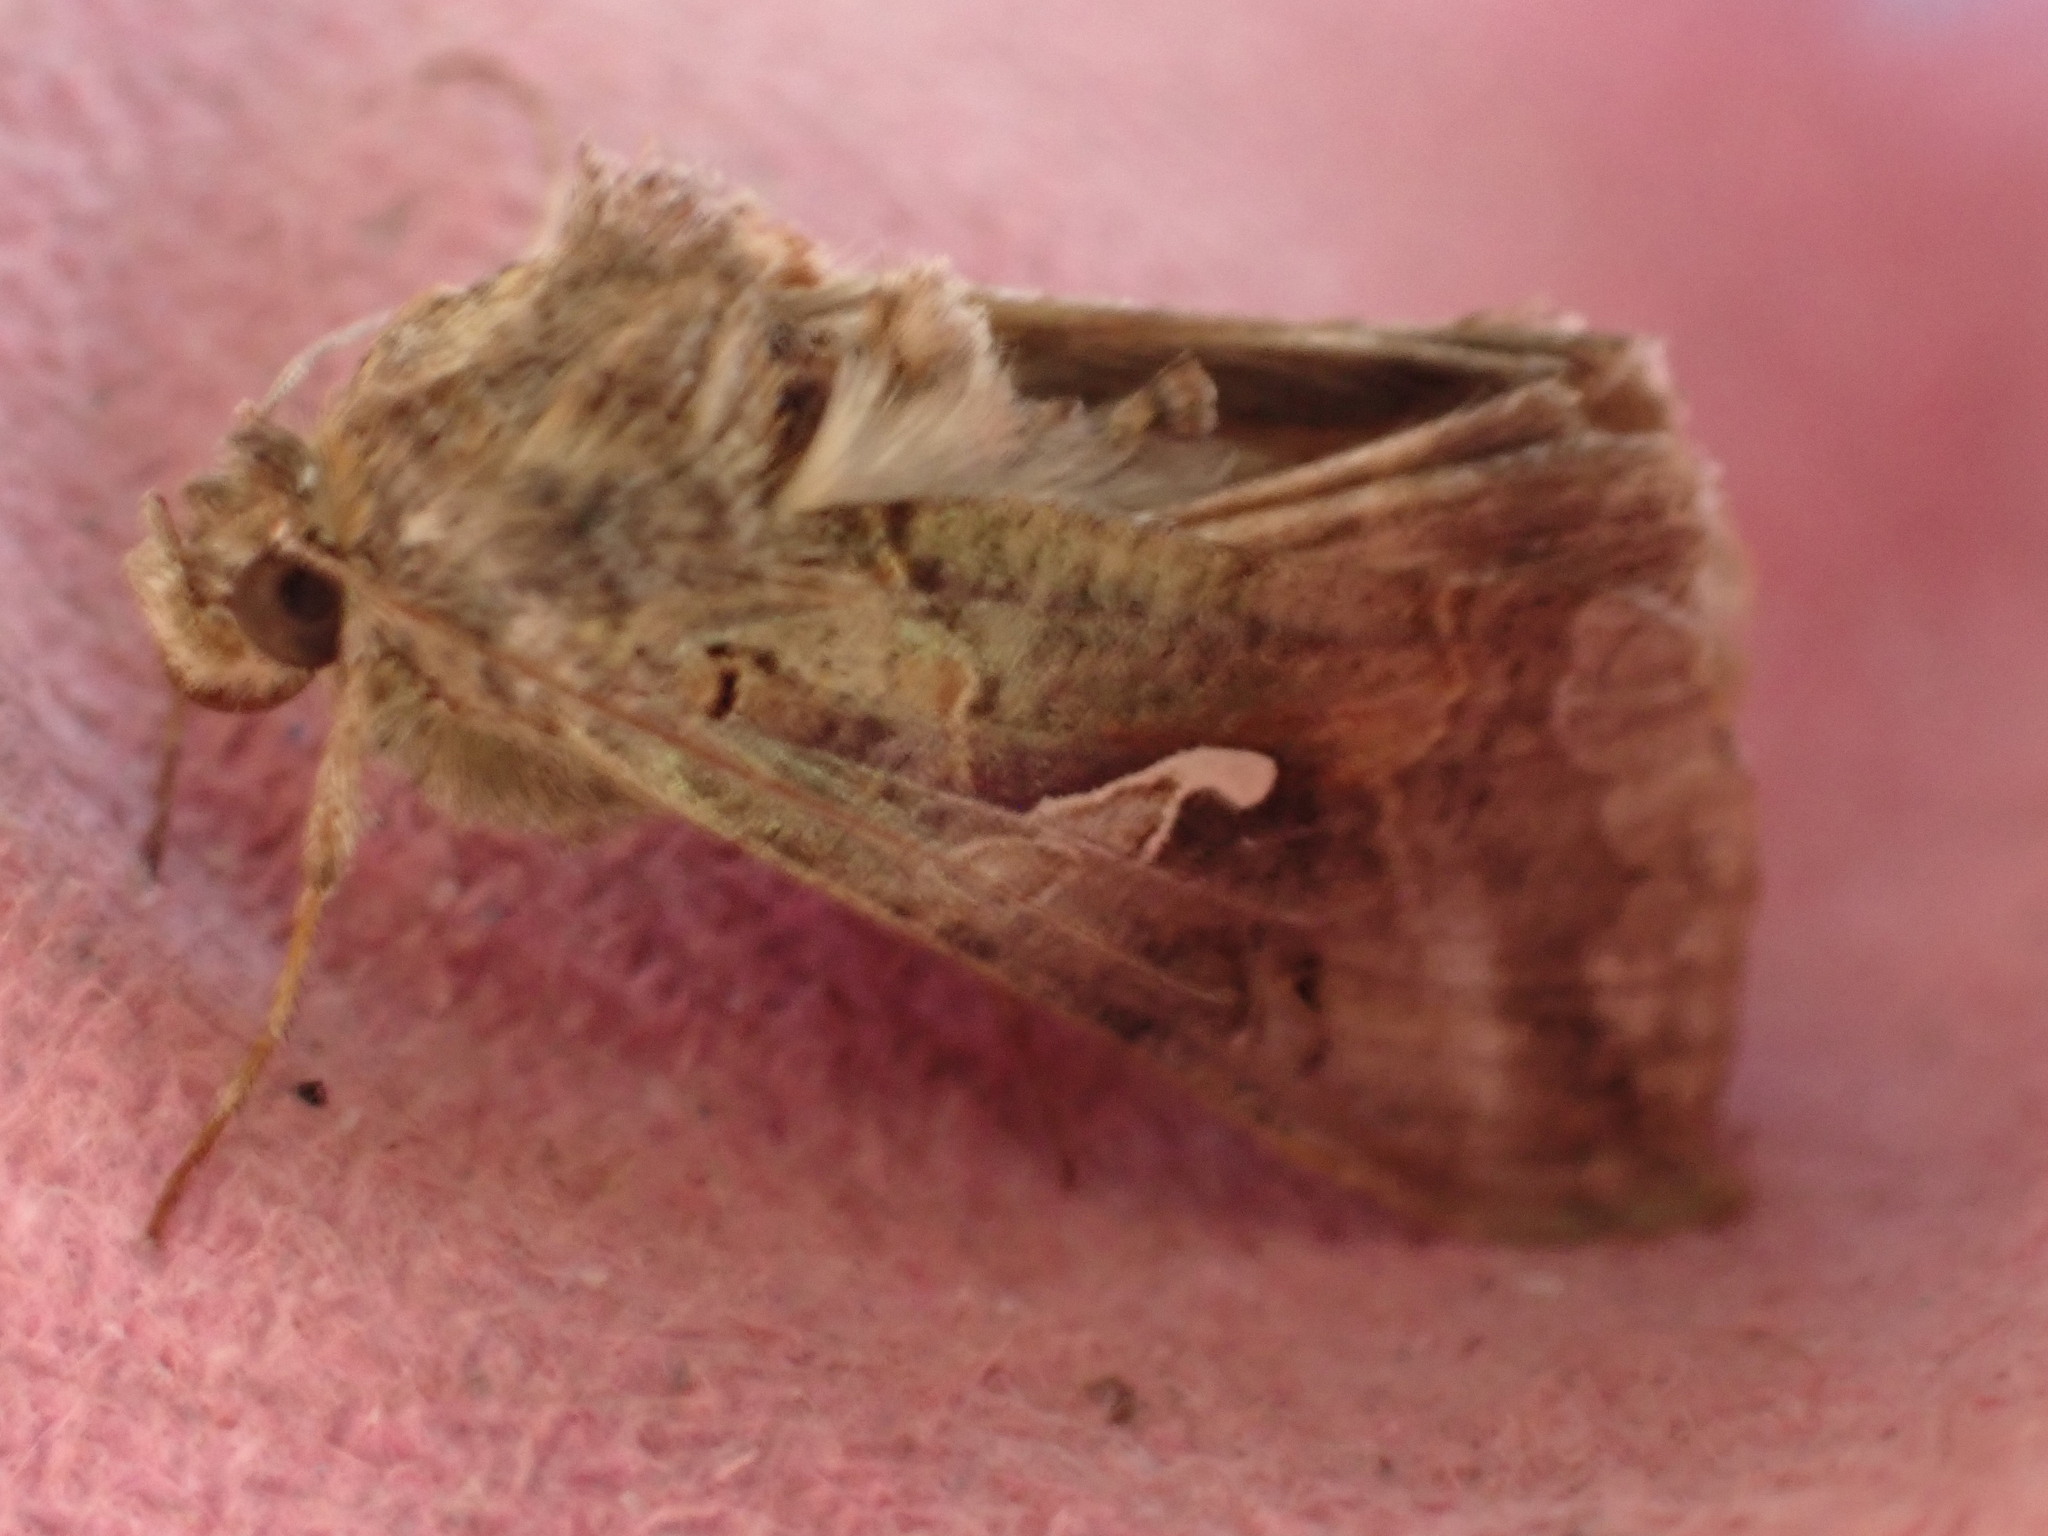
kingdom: Animalia
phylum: Arthropoda
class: Insecta
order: Lepidoptera
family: Noctuidae
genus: Autographa
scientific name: Autographa gamma
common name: Silver y
